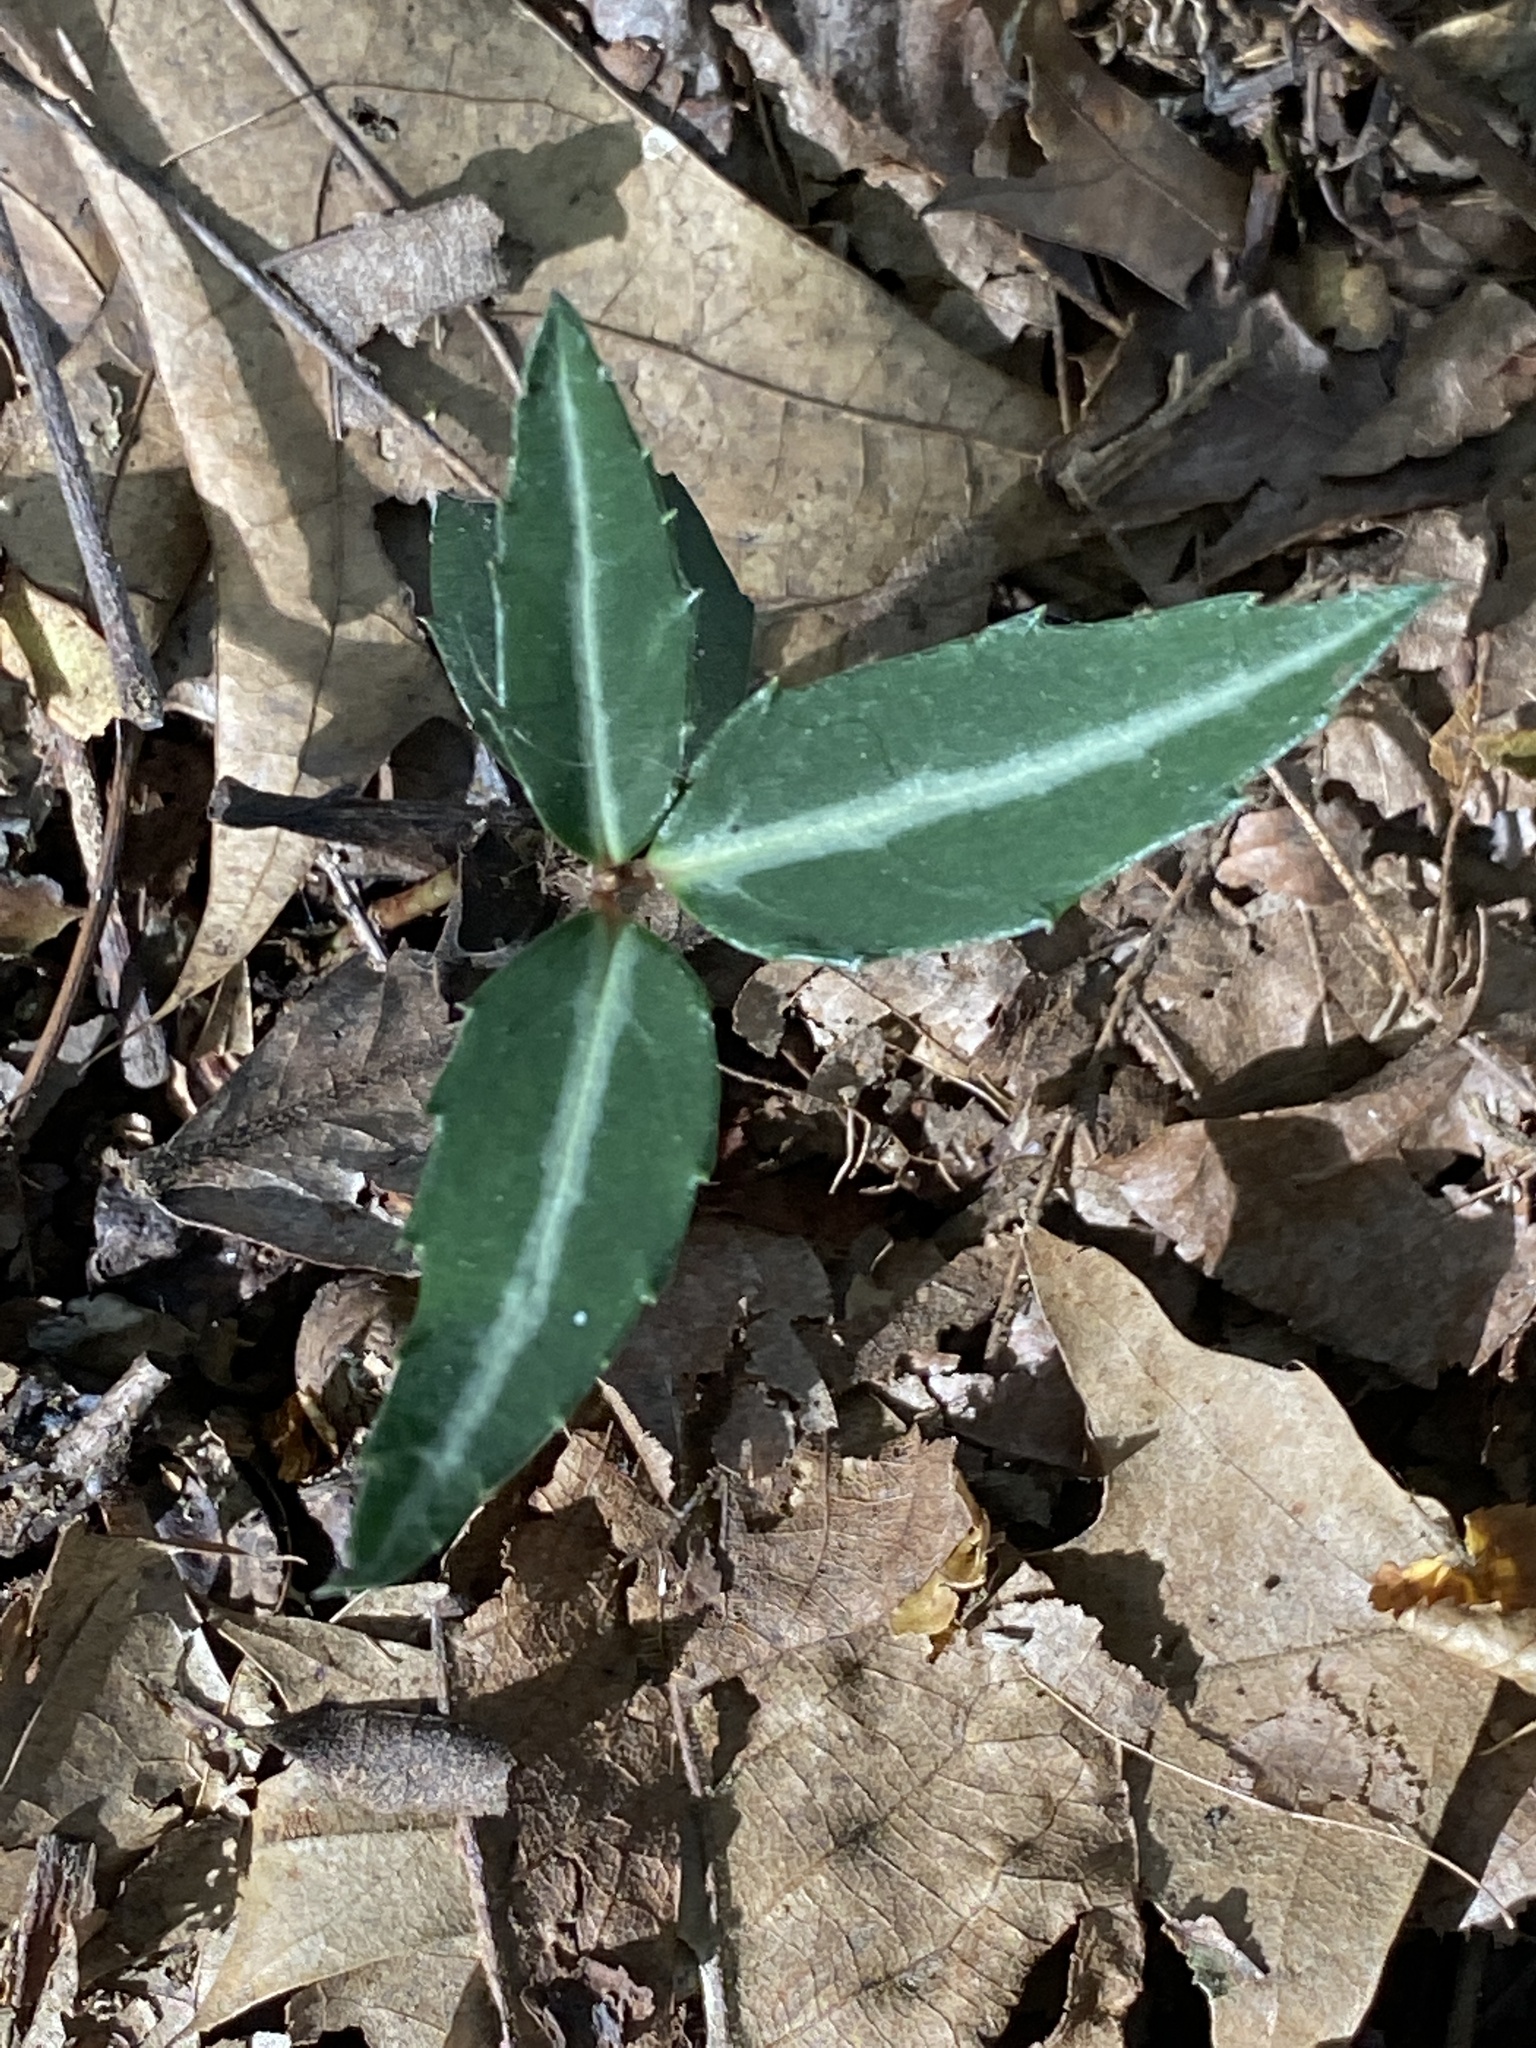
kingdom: Plantae
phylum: Tracheophyta
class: Magnoliopsida
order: Ericales
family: Ericaceae
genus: Chimaphila
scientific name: Chimaphila maculata
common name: Spotted pipsissewa
